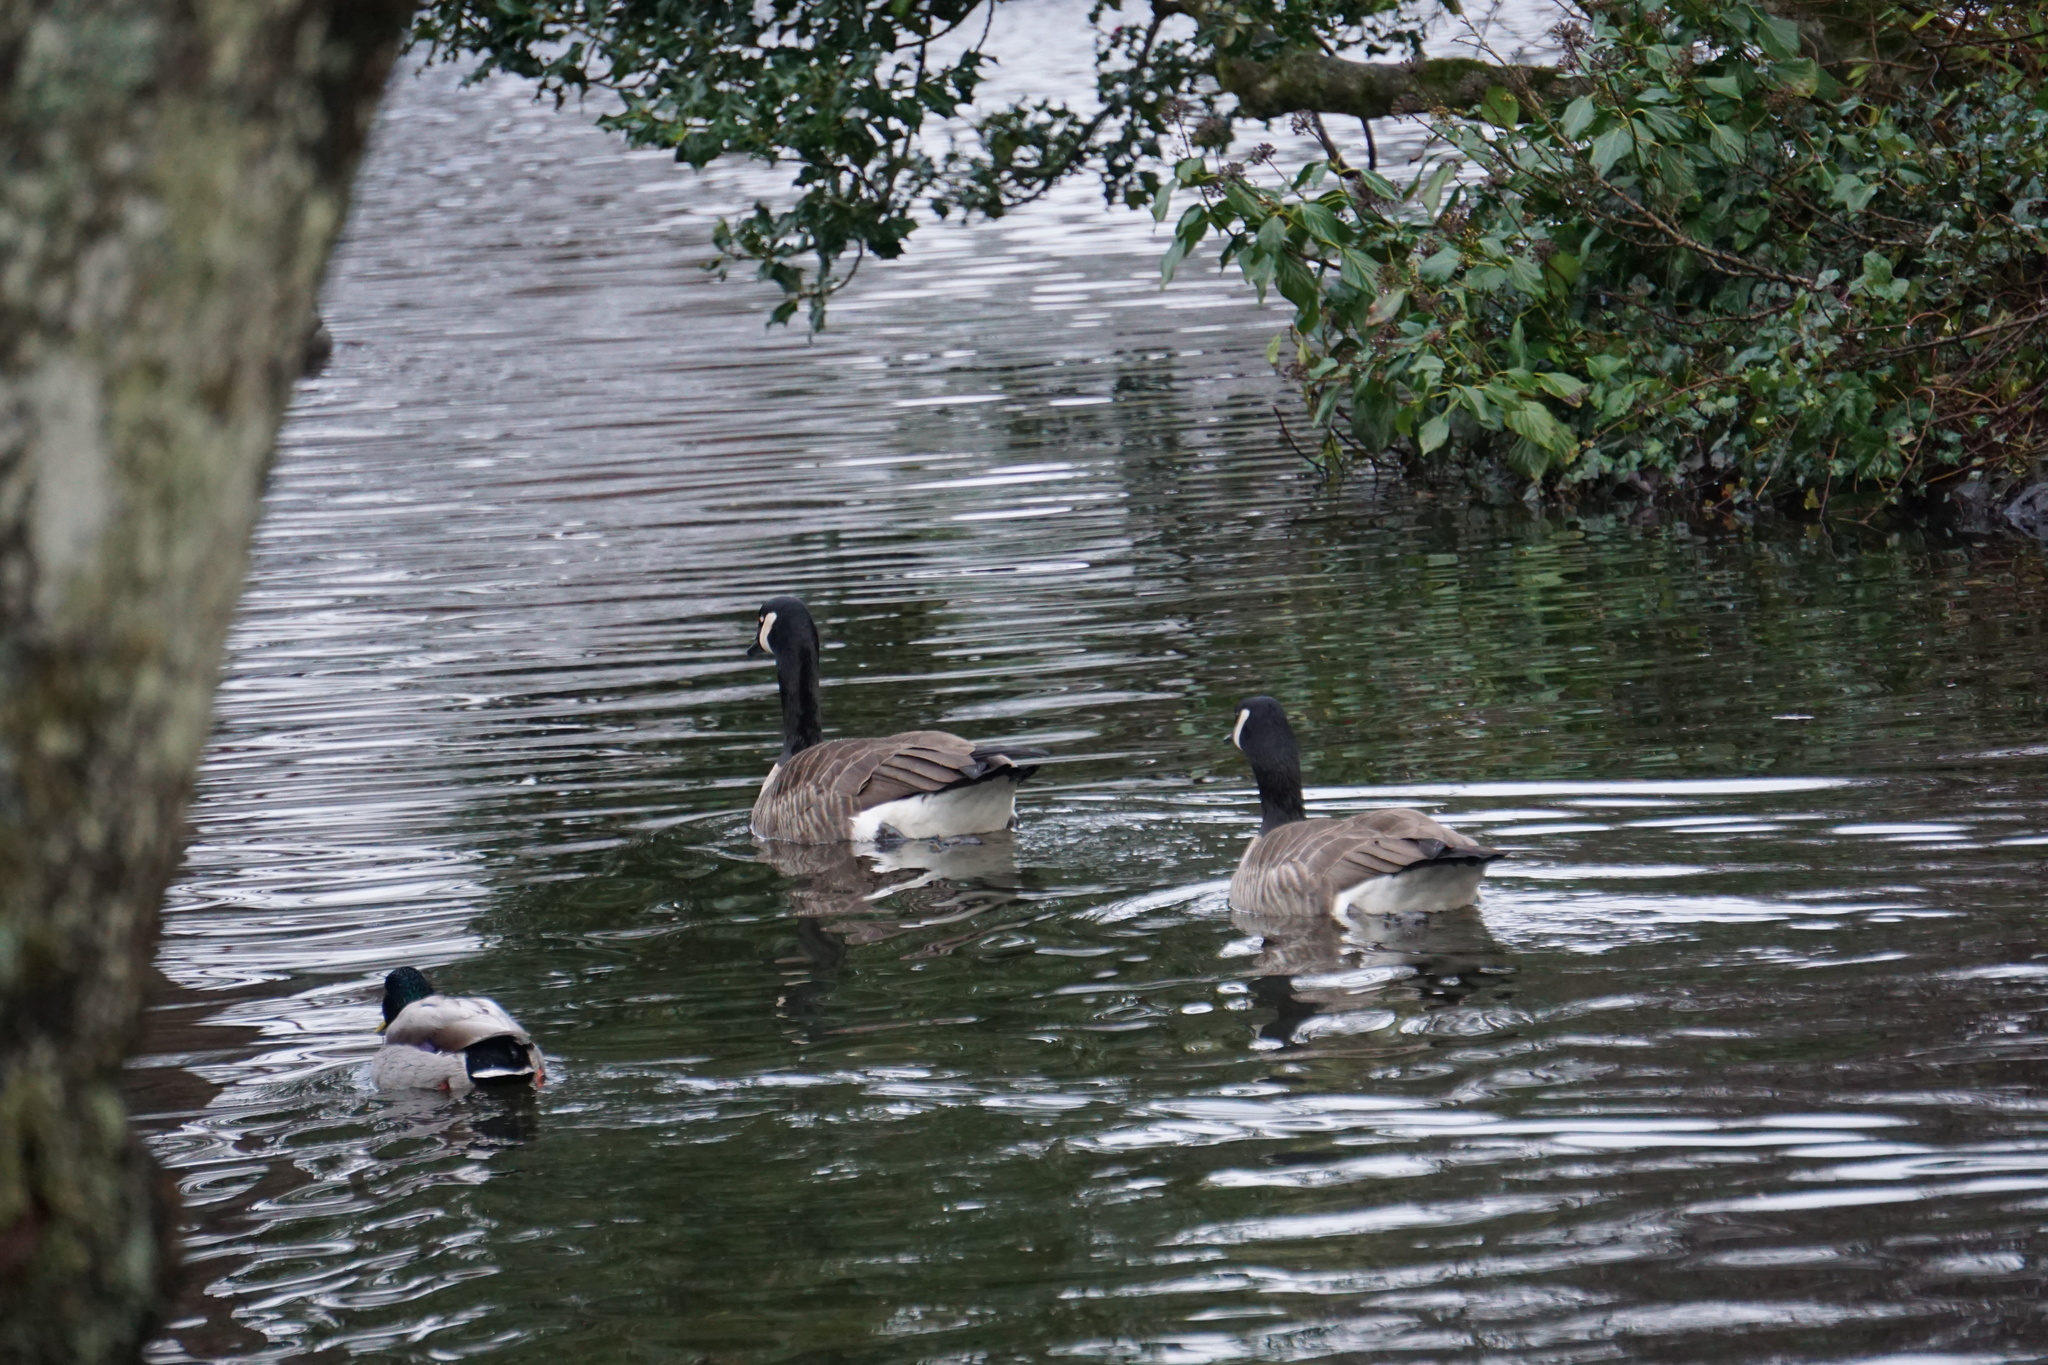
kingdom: Animalia
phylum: Chordata
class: Aves
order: Anseriformes
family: Anatidae
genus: Branta
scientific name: Branta canadensis
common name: Canada goose
